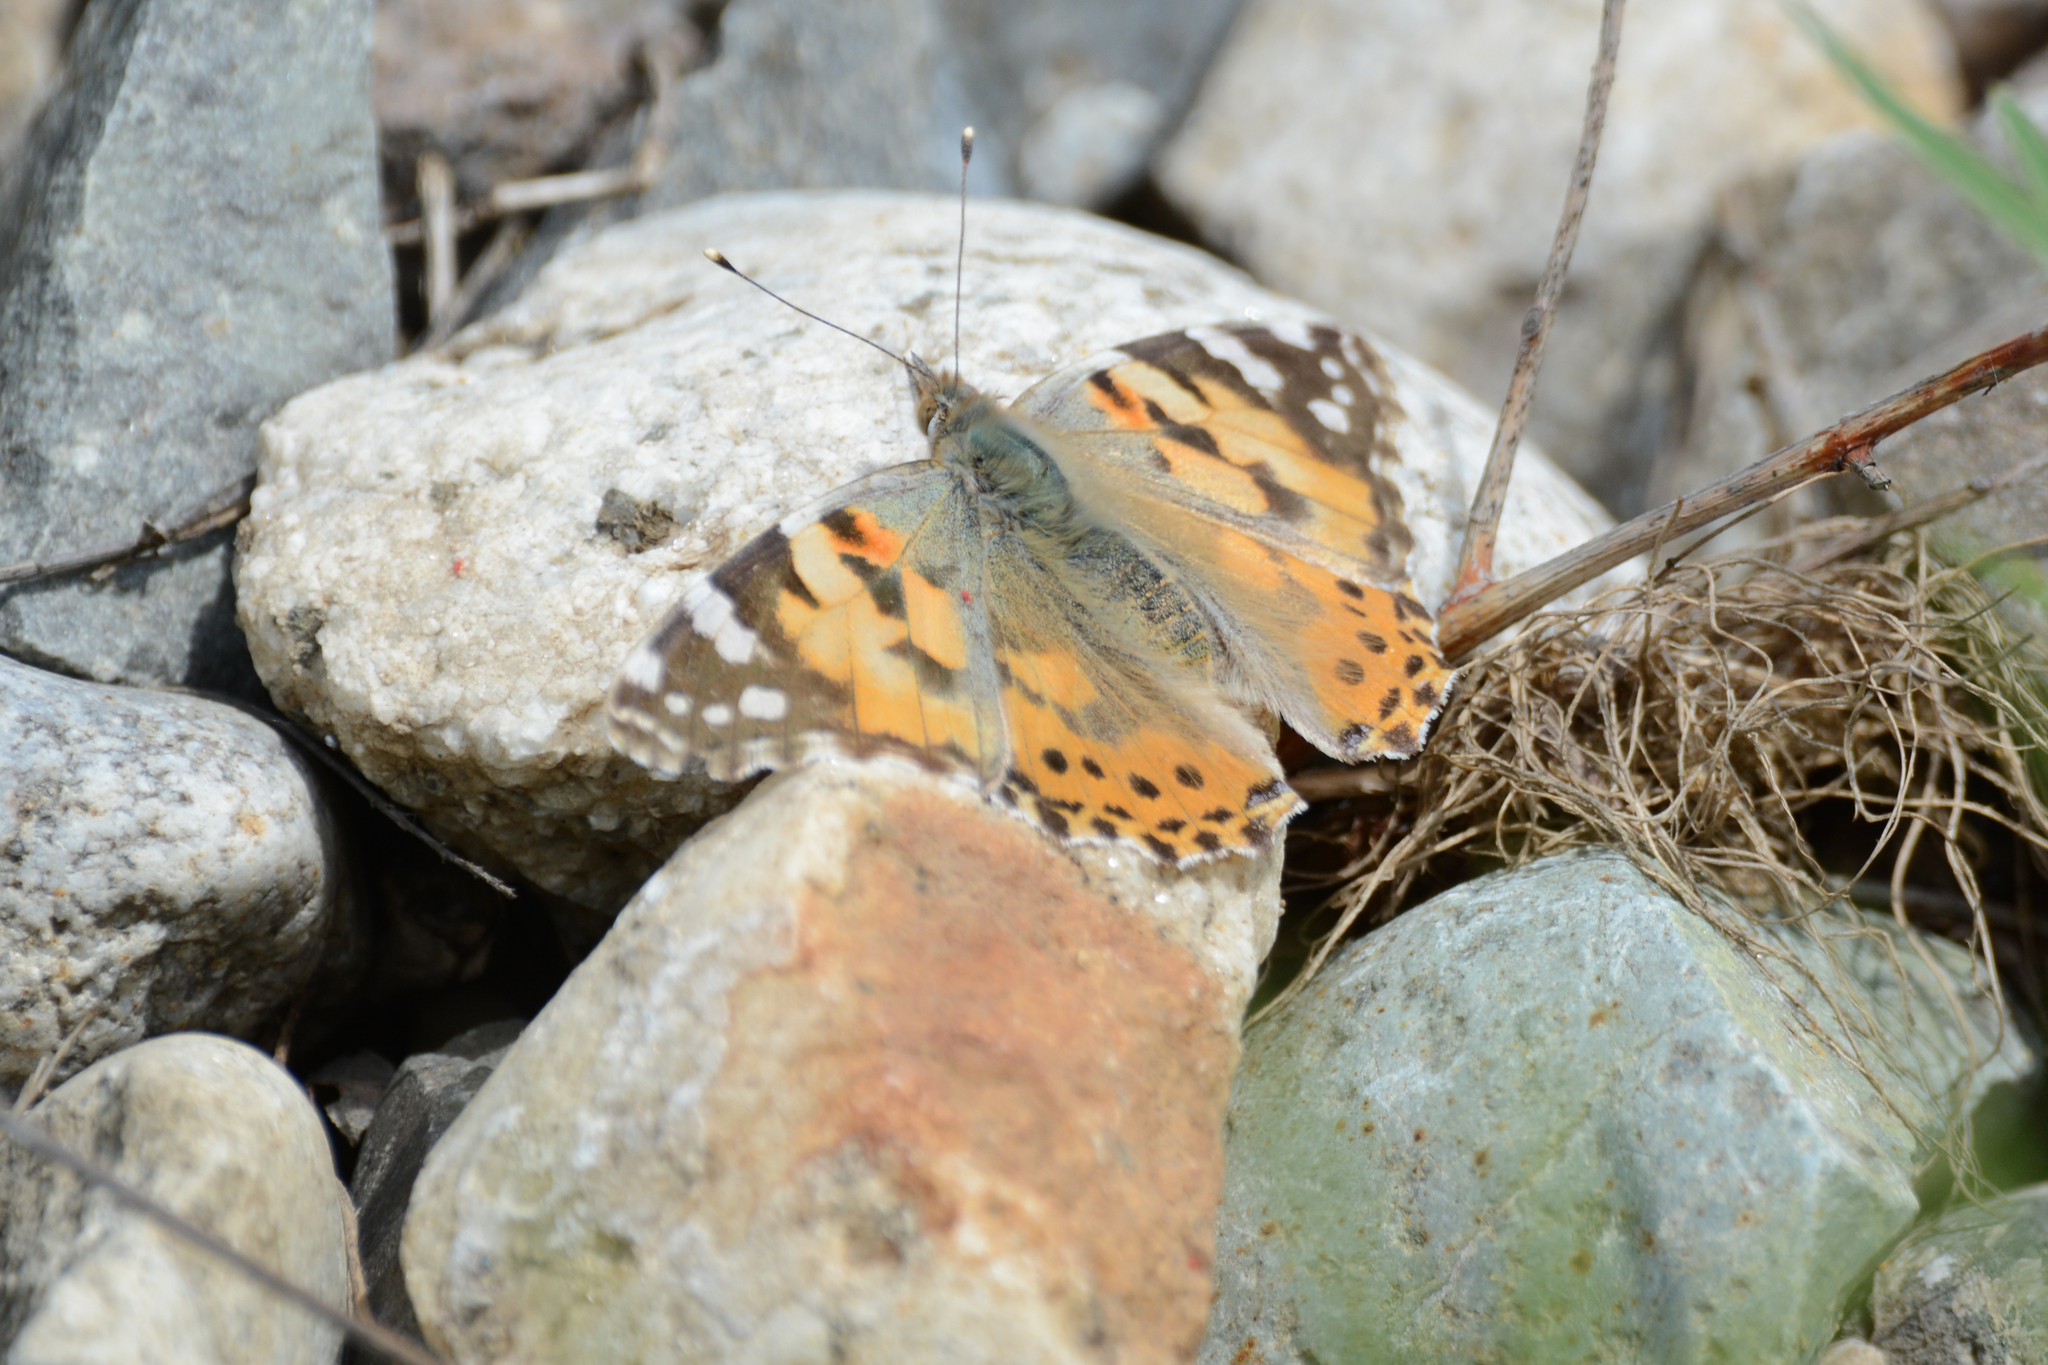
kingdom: Animalia
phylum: Arthropoda
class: Insecta
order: Lepidoptera
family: Nymphalidae
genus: Vanessa
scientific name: Vanessa cardui
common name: Painted lady
